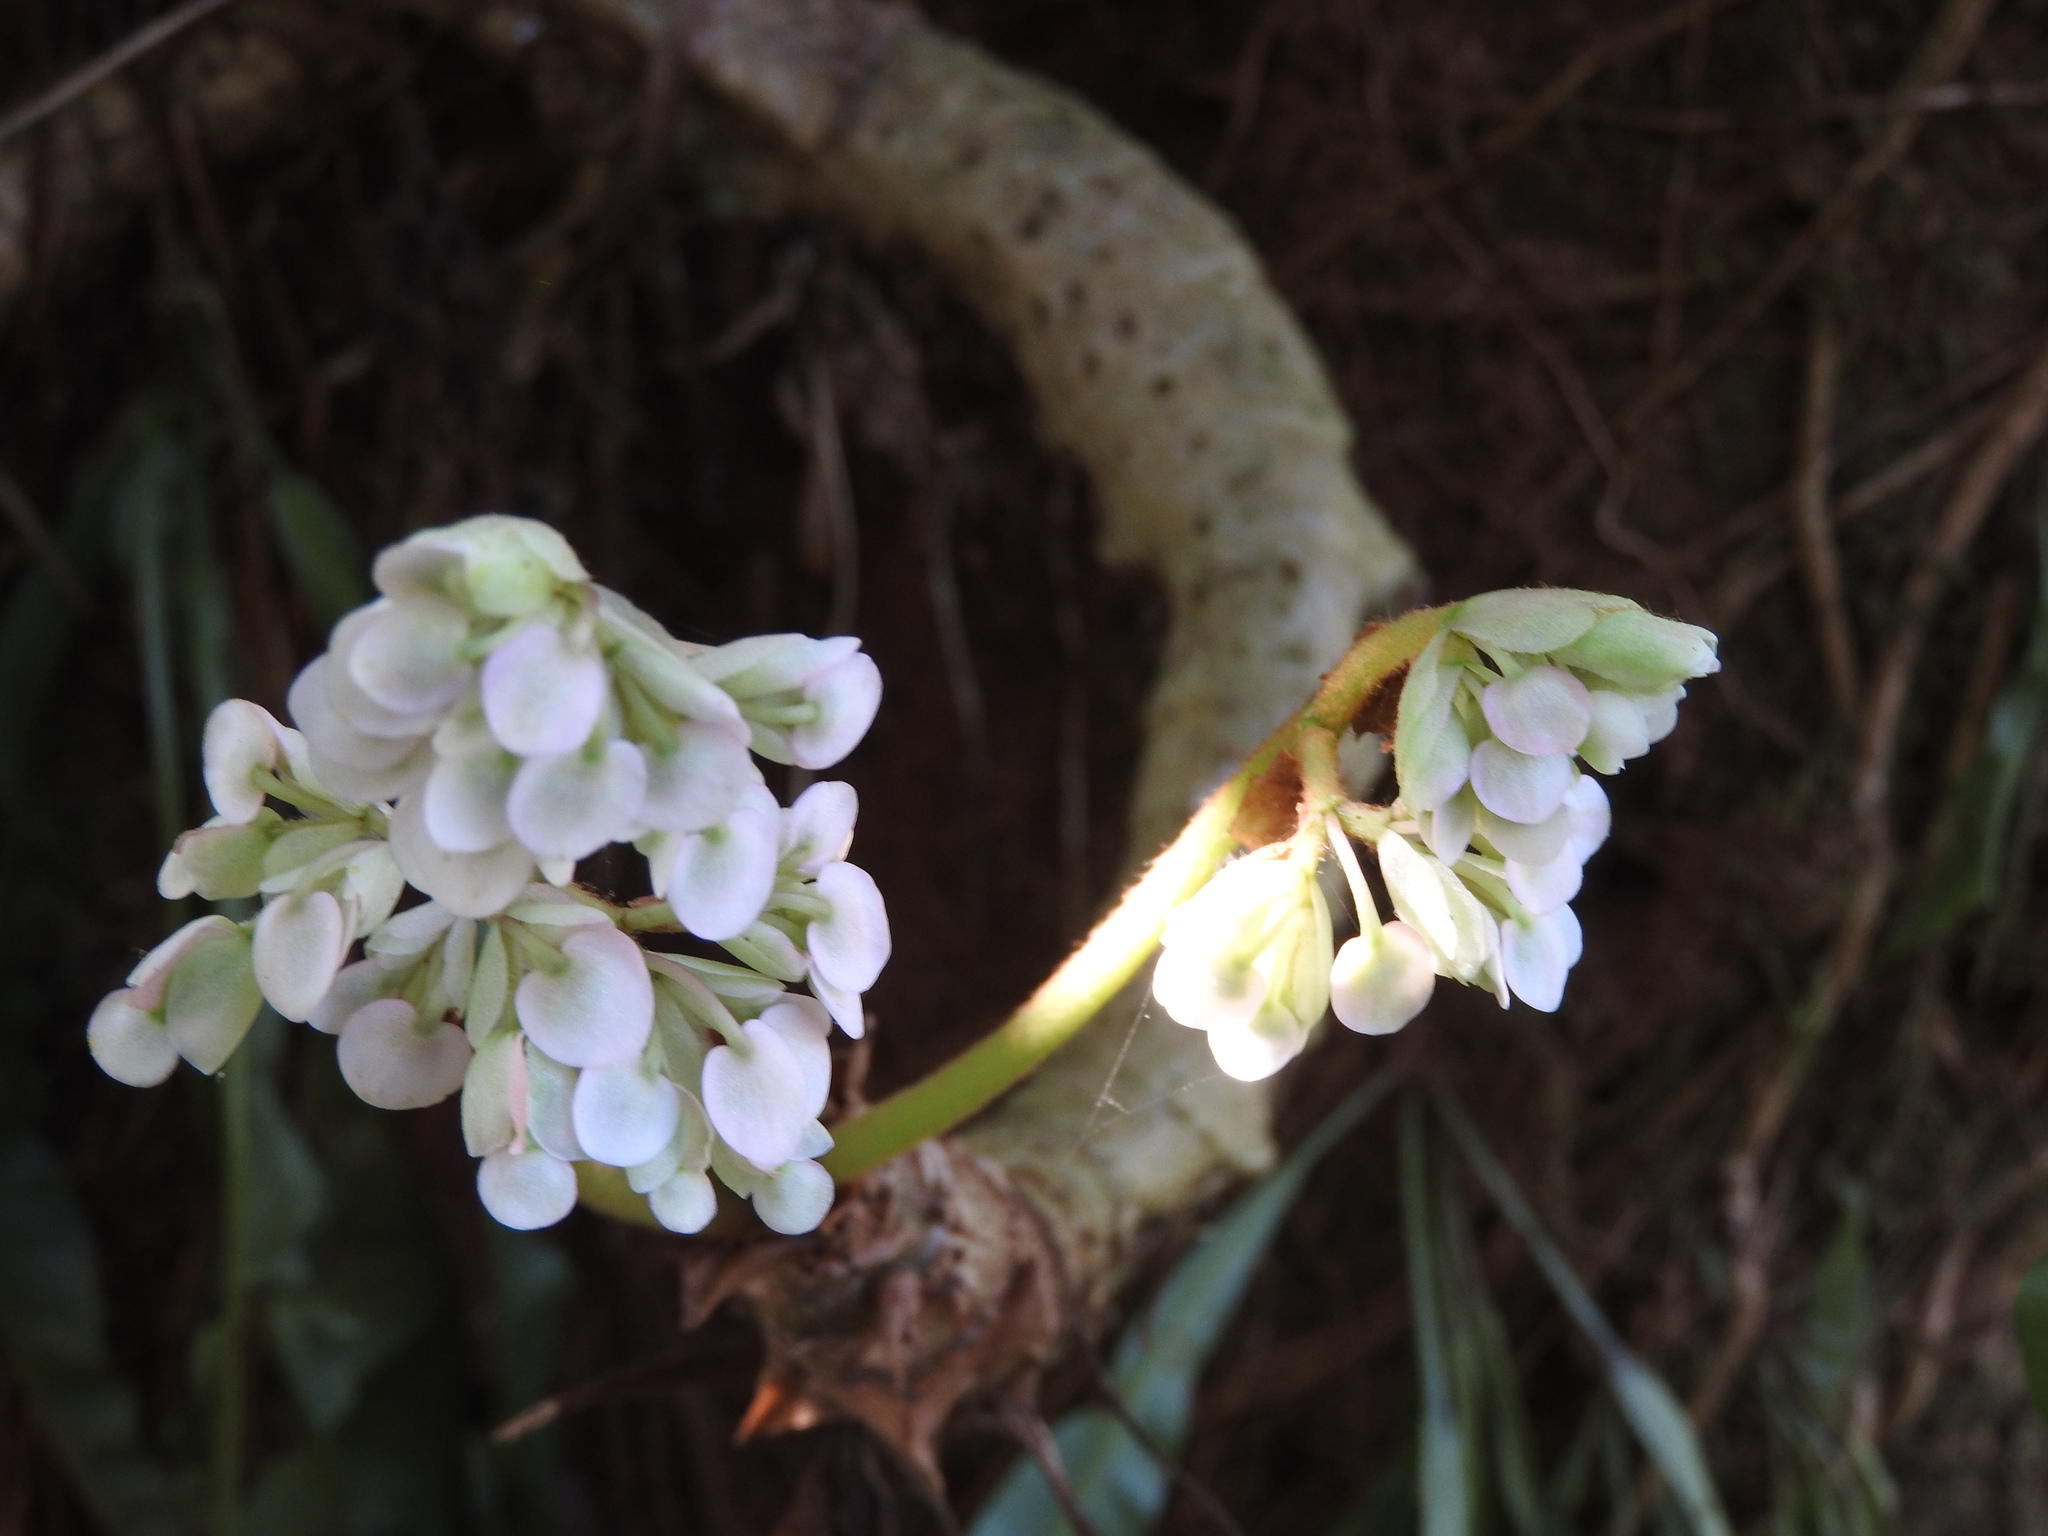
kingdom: Plantae
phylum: Tracheophyta
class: Magnoliopsida
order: Cucurbitales
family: Begoniaceae
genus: Begonia
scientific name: Begonia crassicaulis
